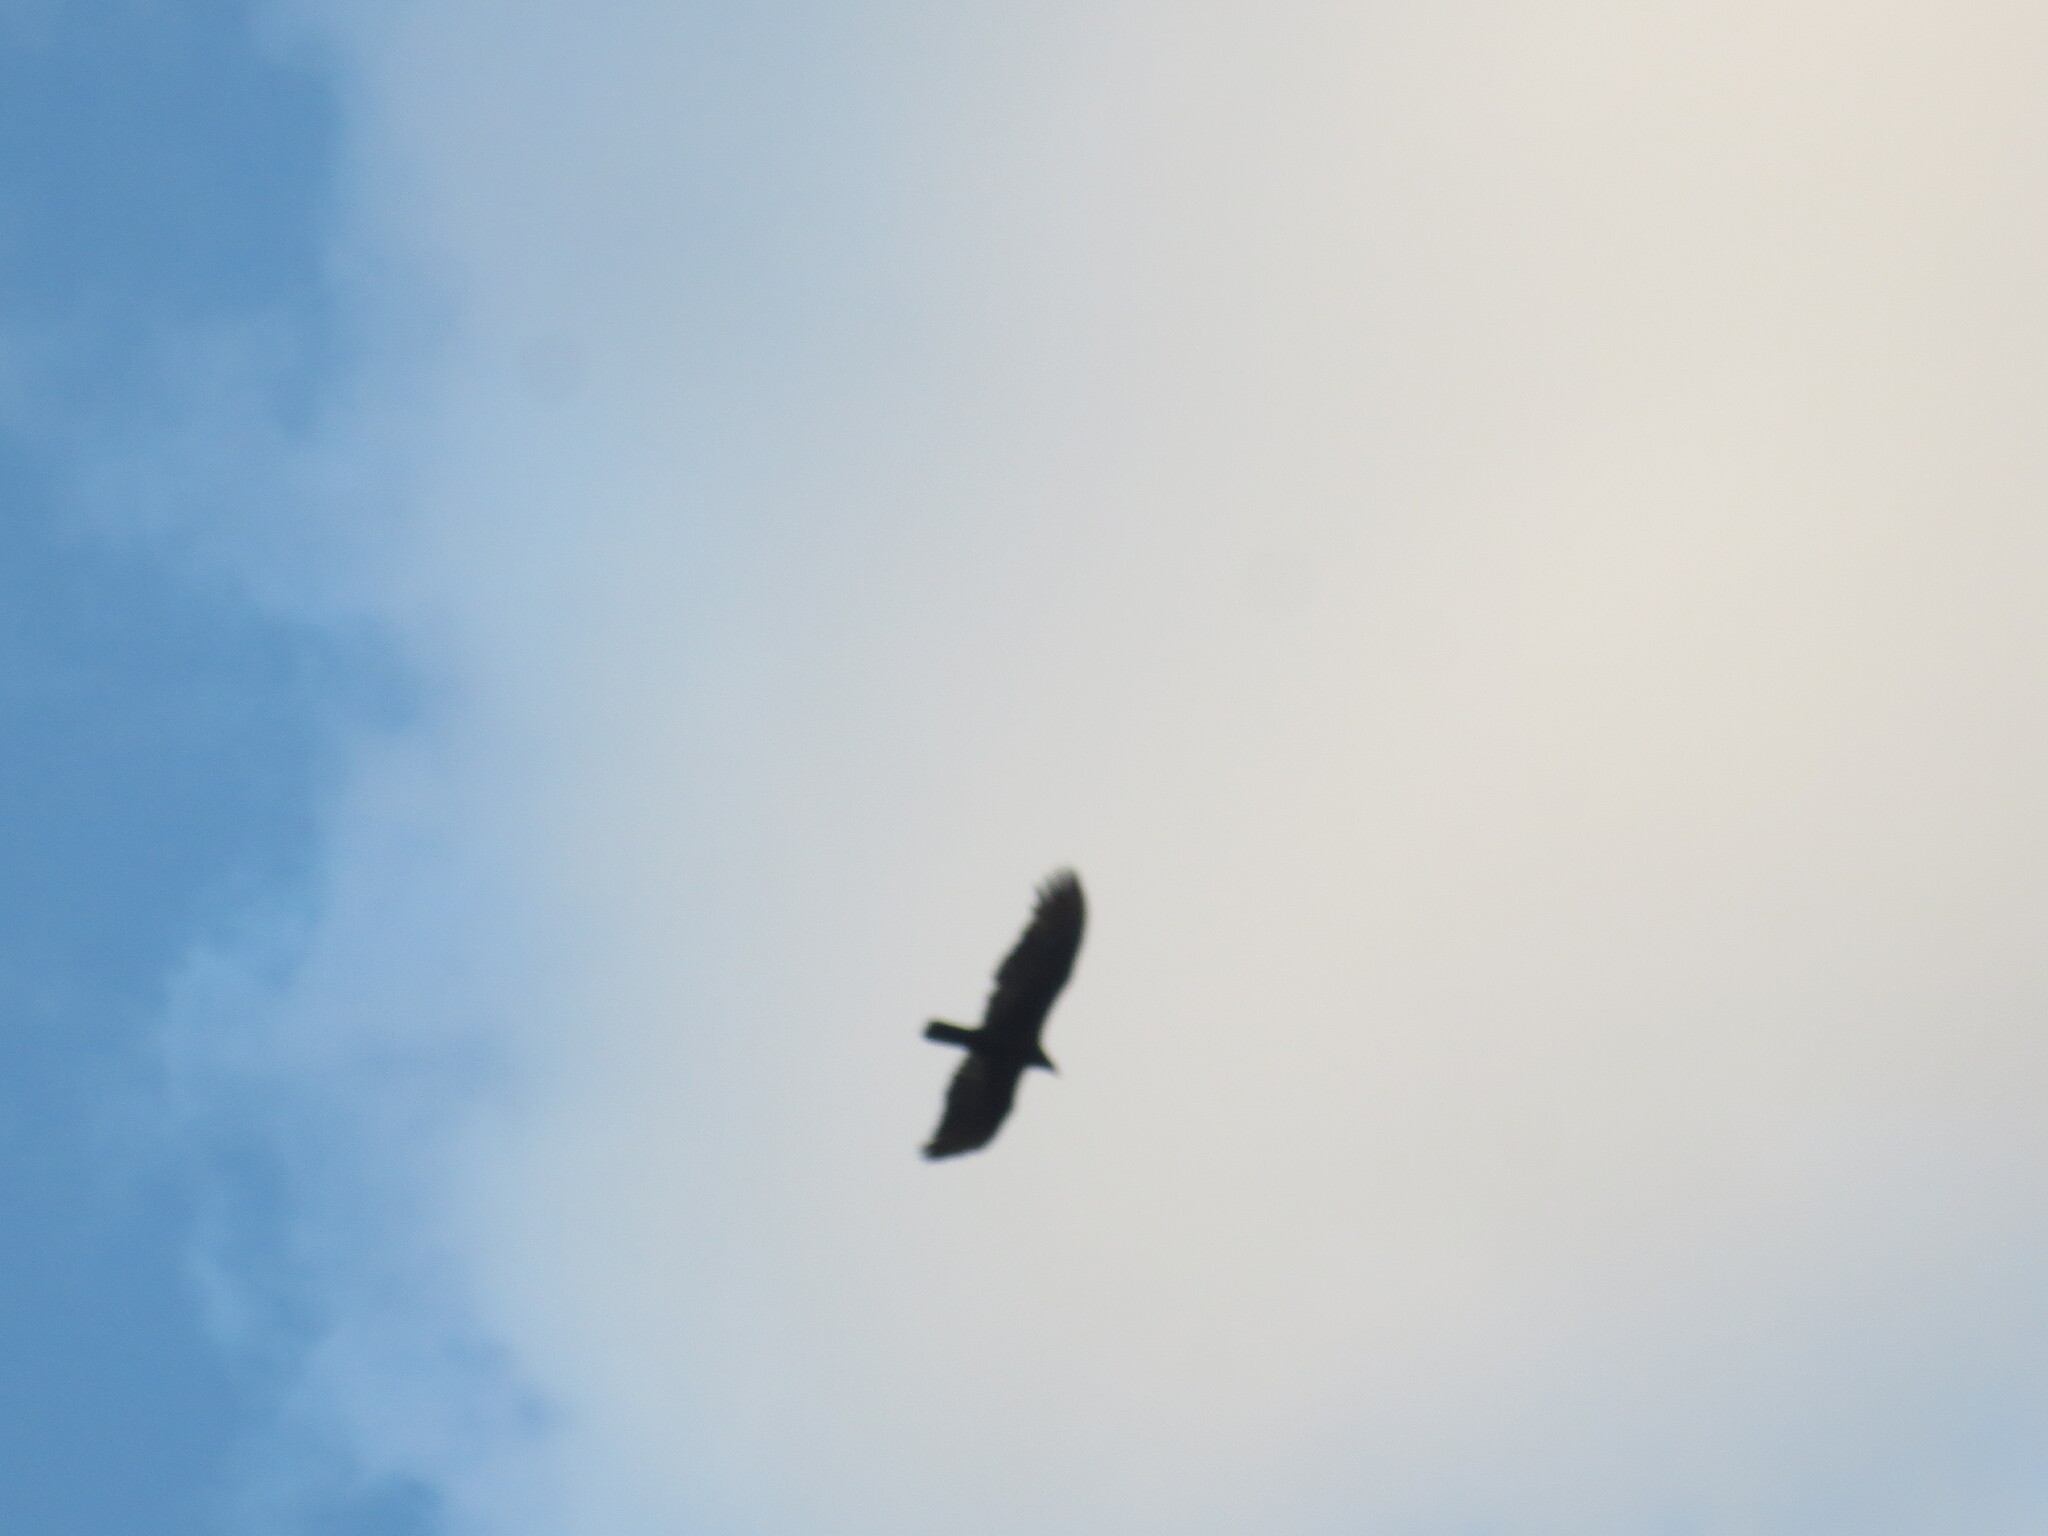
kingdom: Animalia
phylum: Chordata
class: Aves
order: Accipitriformes
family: Cathartidae
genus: Cathartes
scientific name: Cathartes aura
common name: Turkey vulture
